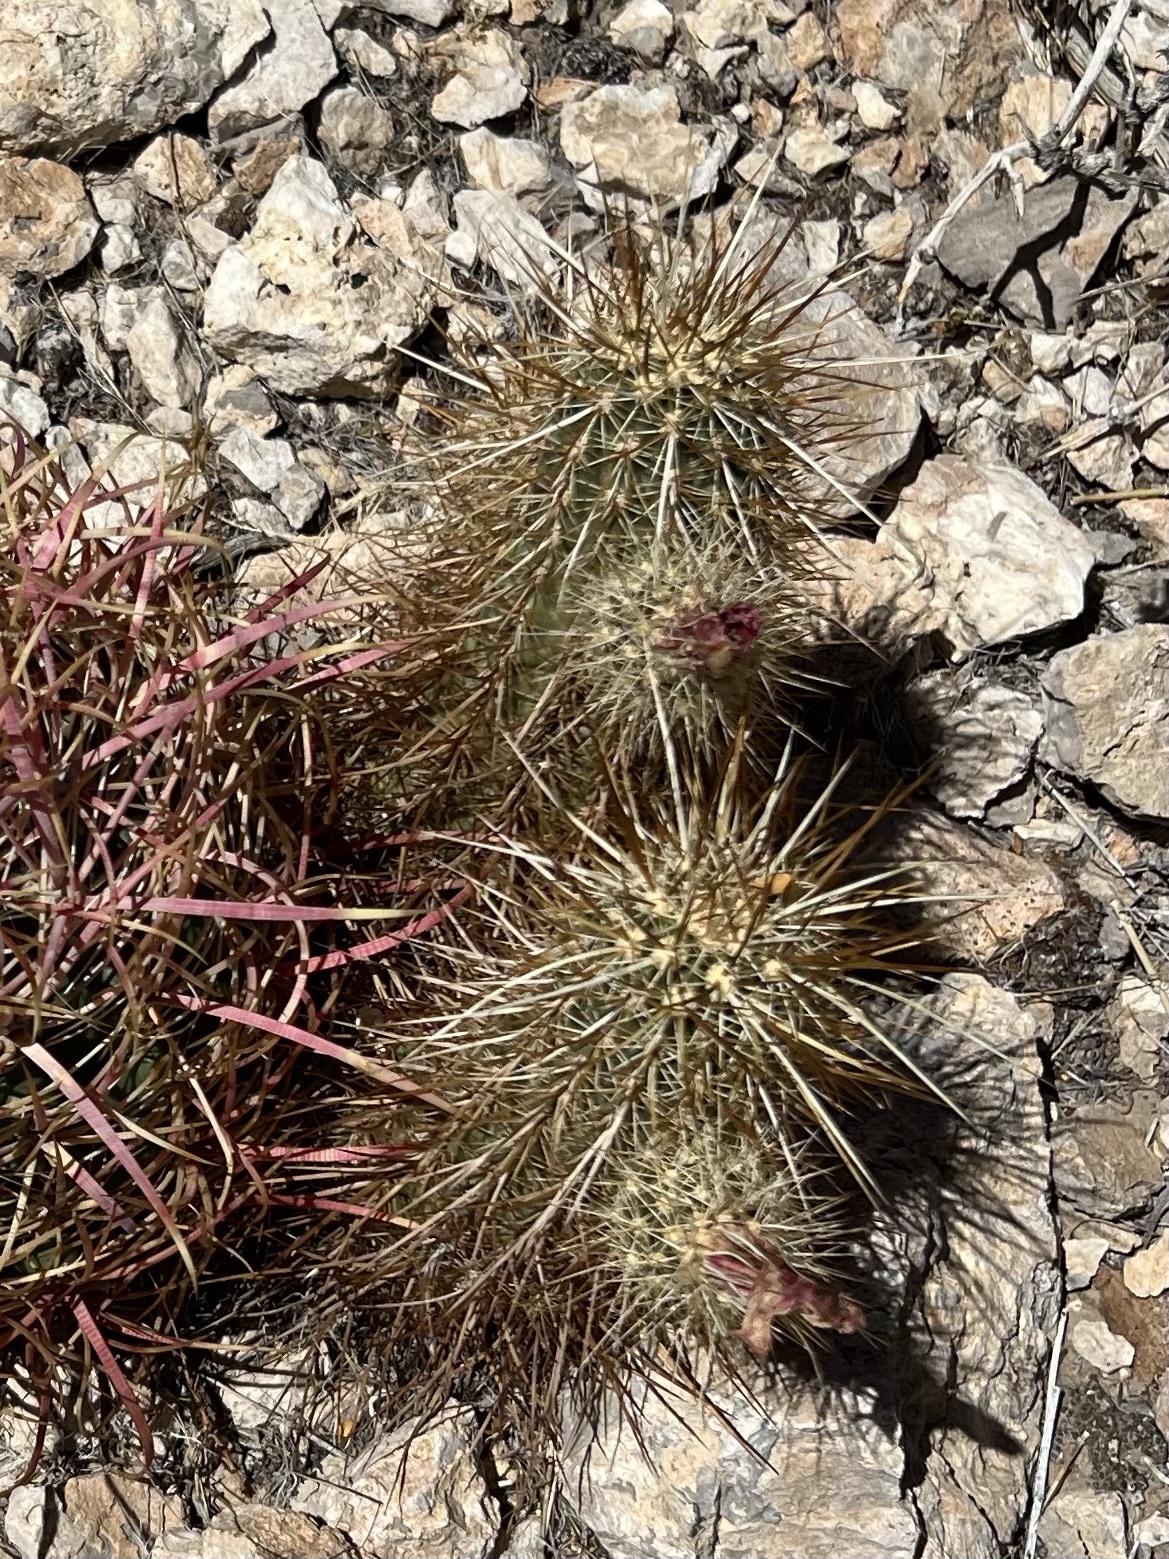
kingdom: Plantae
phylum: Tracheophyta
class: Magnoliopsida
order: Caryophyllales
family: Cactaceae
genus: Echinocereus
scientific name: Echinocereus engelmannii
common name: Engelmann's hedgehog cactus
